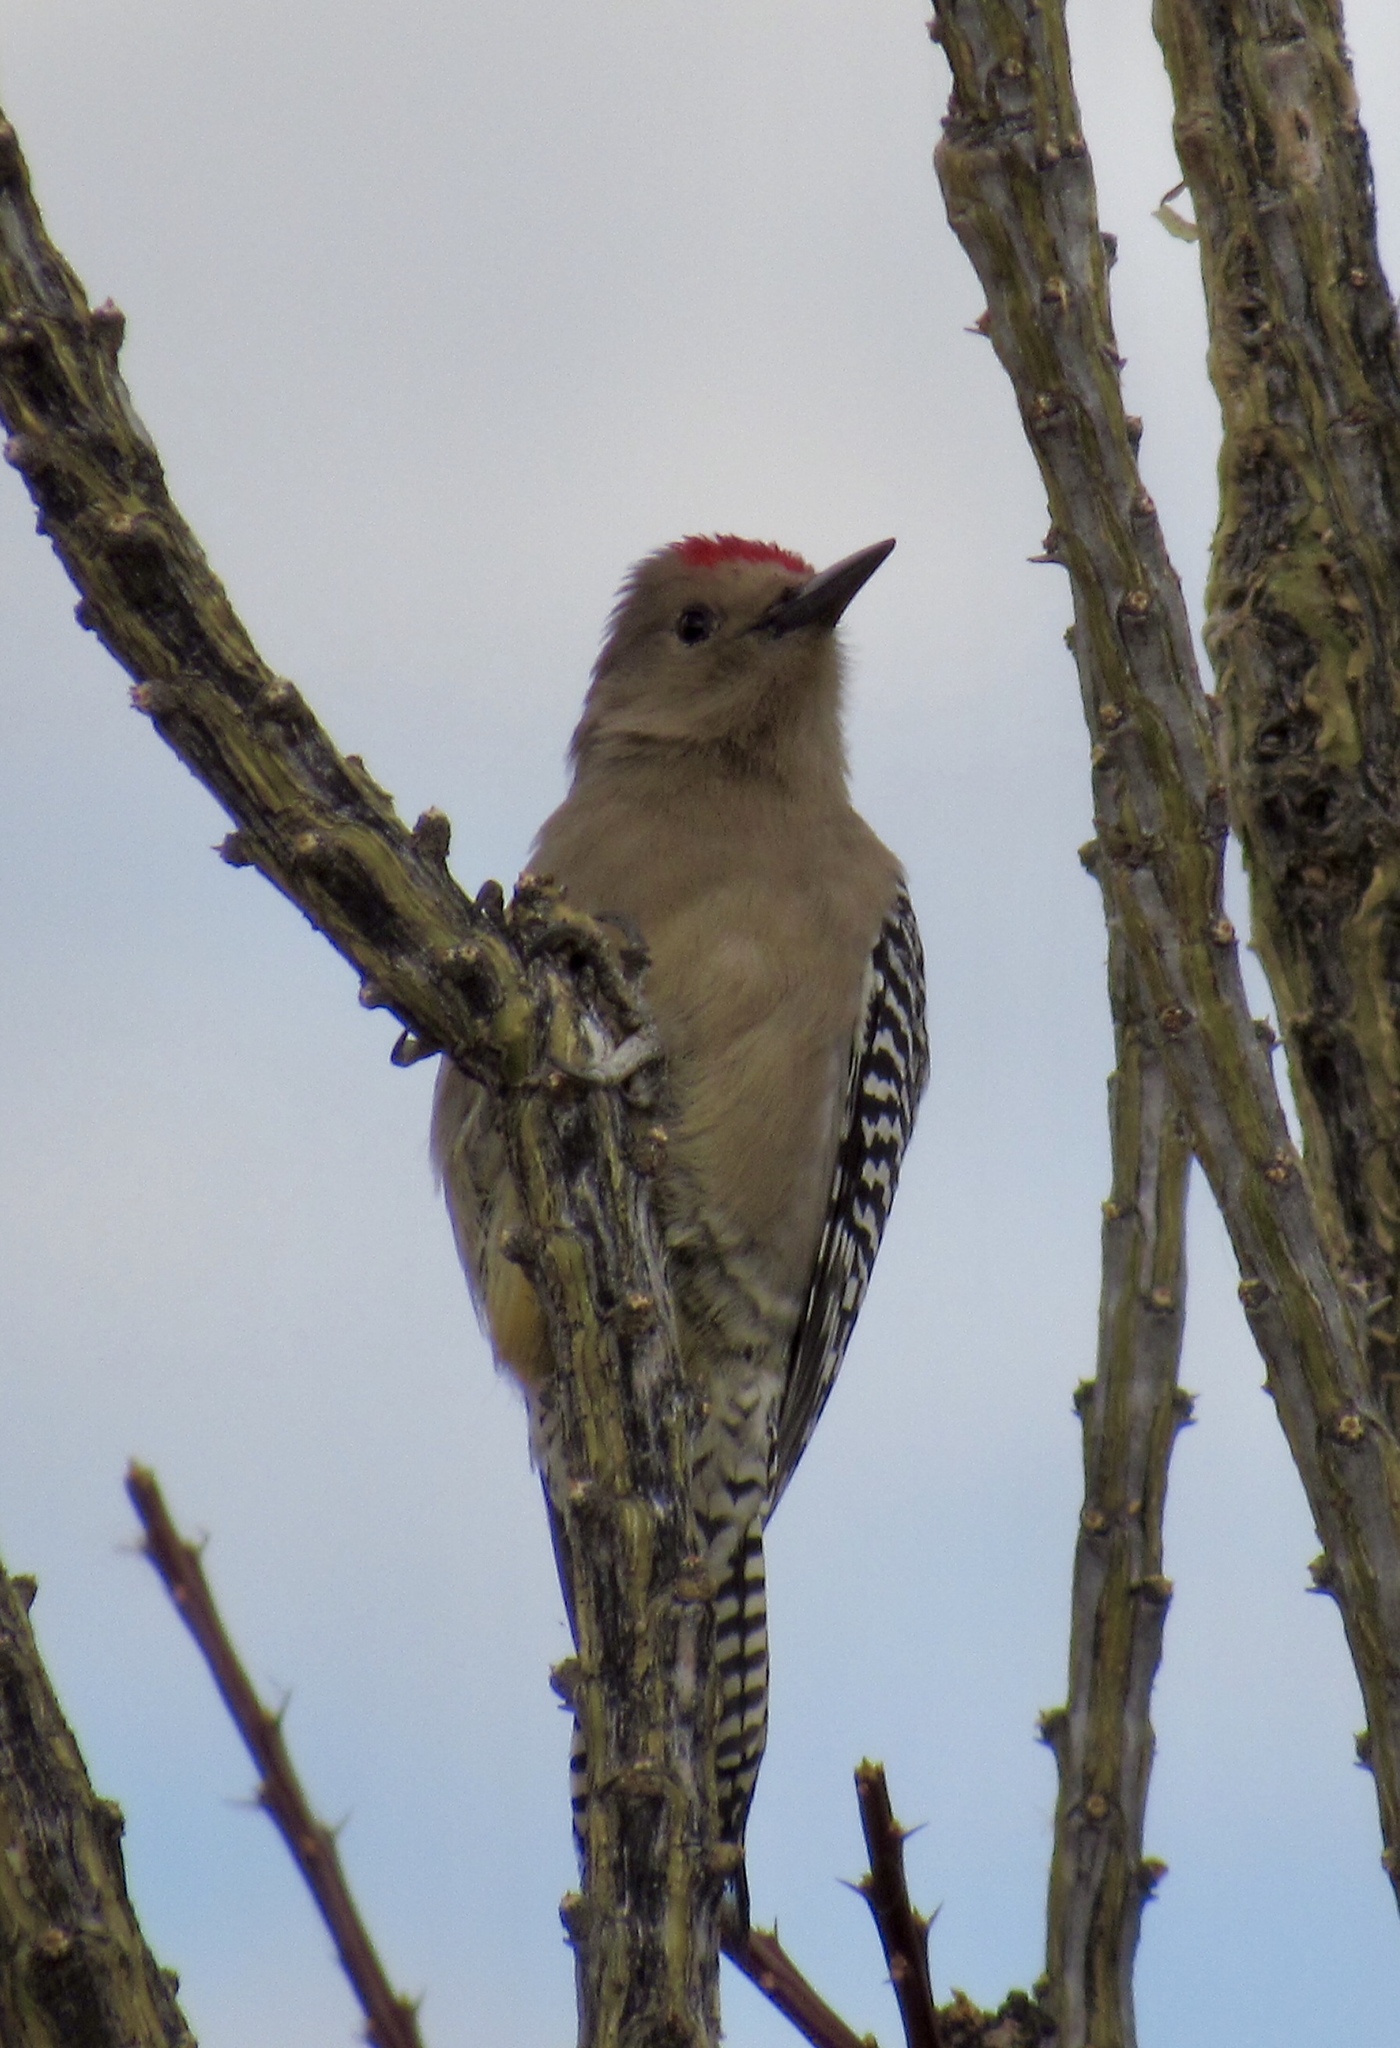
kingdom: Animalia
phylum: Chordata
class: Aves
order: Piciformes
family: Picidae
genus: Melanerpes
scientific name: Melanerpes uropygialis
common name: Gila woodpecker
